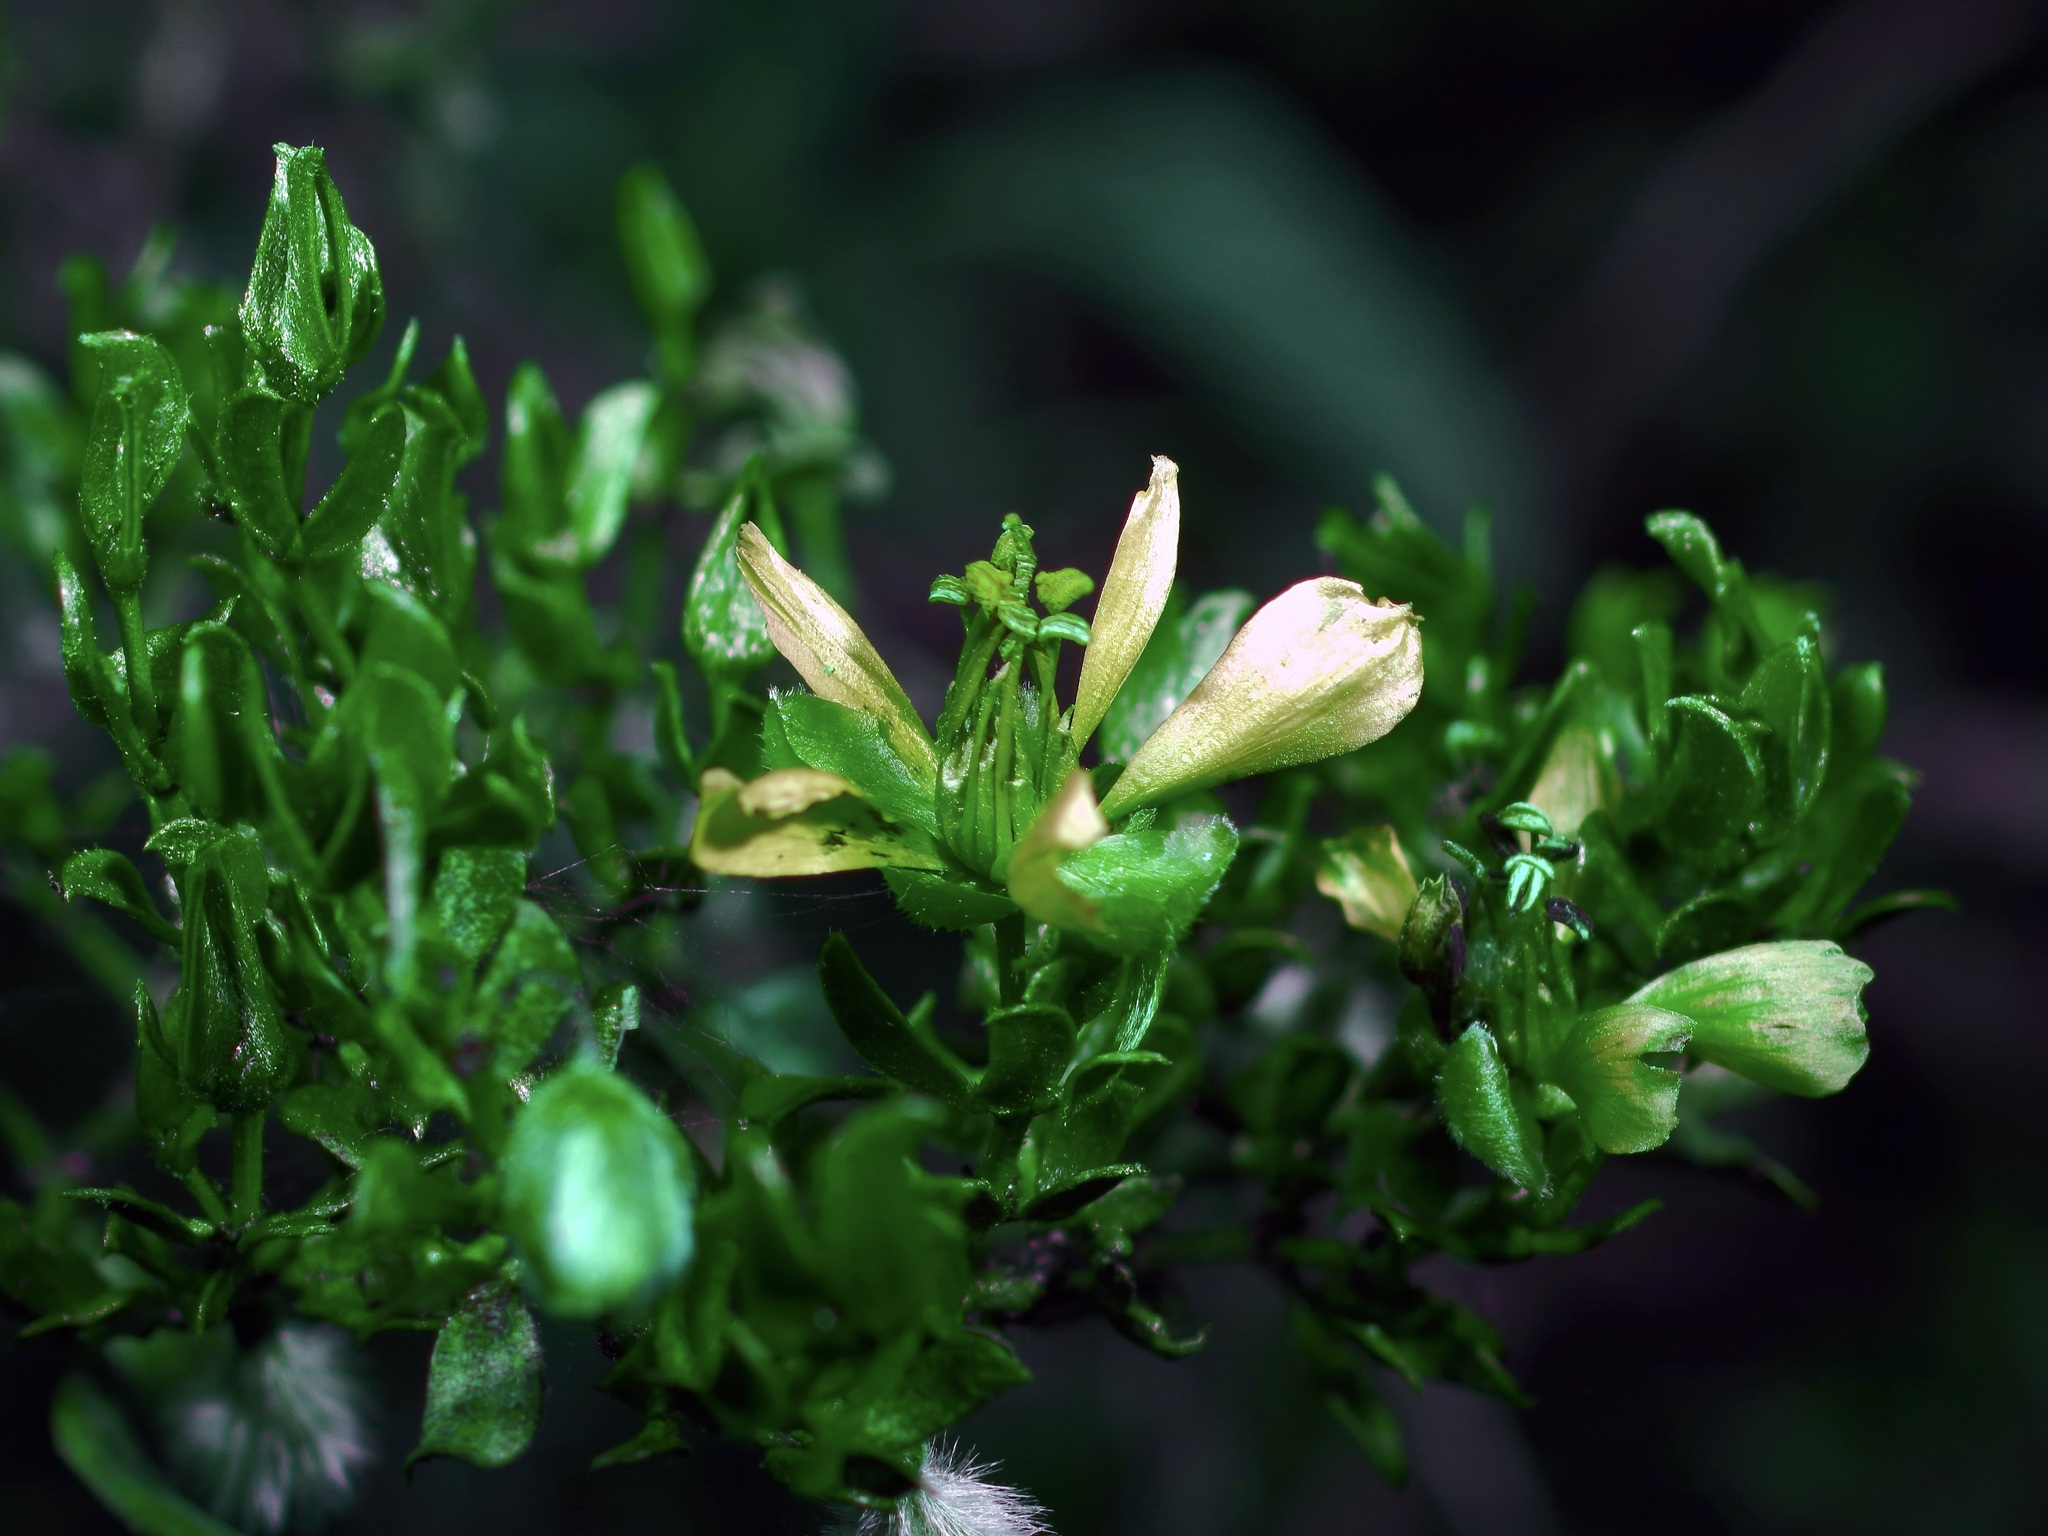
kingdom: Plantae
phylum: Tracheophyta
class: Magnoliopsida
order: Zygophyllales
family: Zygophyllaceae
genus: Larrea
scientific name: Larrea tridentata
